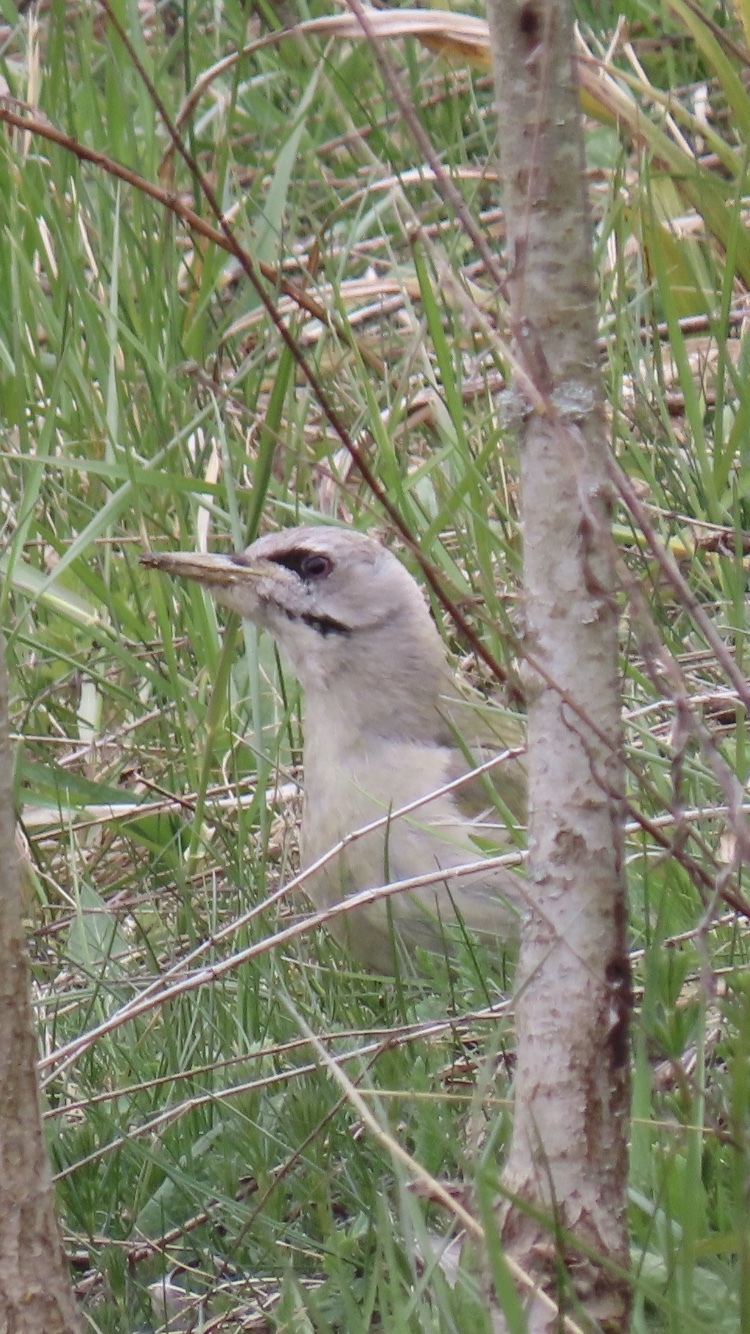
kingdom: Animalia
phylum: Chordata
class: Aves
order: Piciformes
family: Picidae
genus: Picus
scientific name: Picus canus
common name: Grey-headed woodpecker
